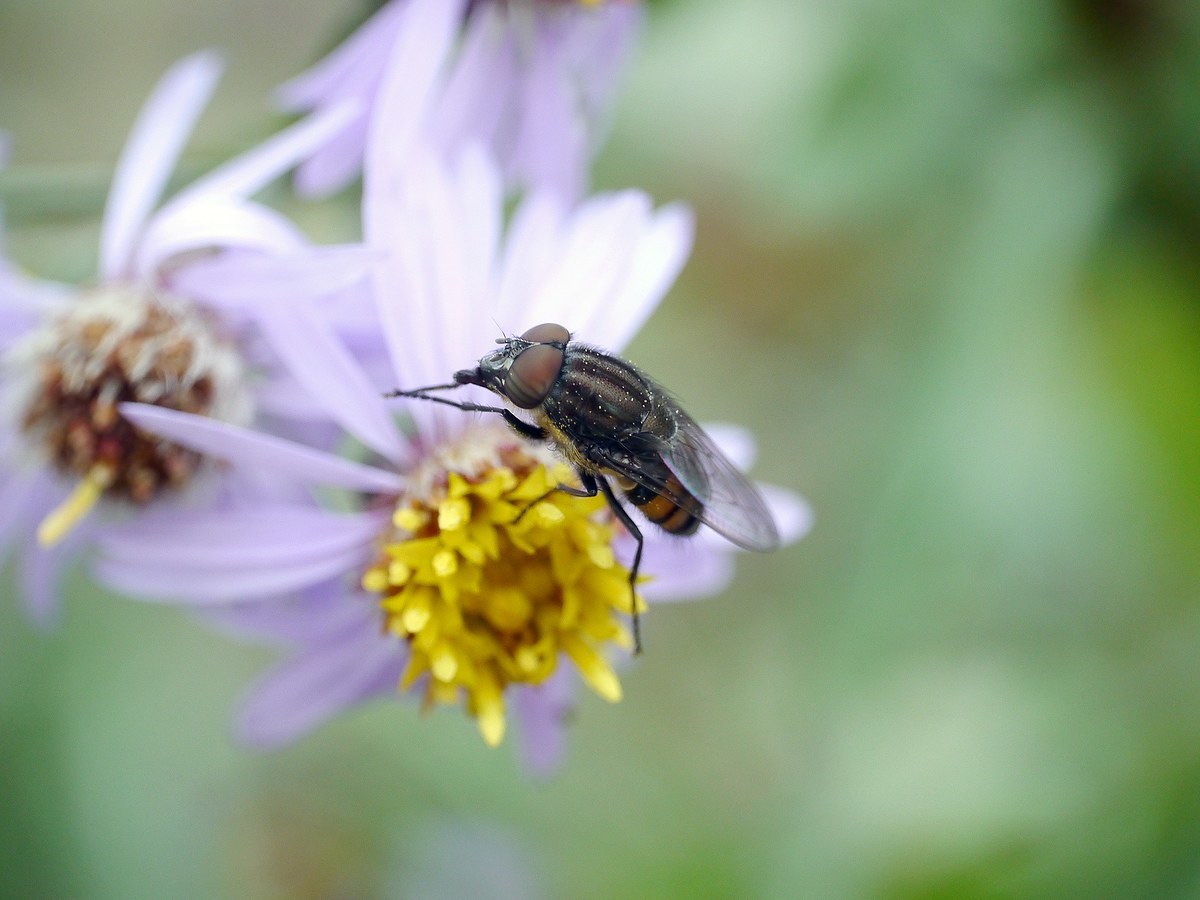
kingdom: Animalia
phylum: Arthropoda
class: Insecta
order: Diptera
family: Calliphoridae
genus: Stomorhina
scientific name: Stomorhina lunata
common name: Locust blowfly
